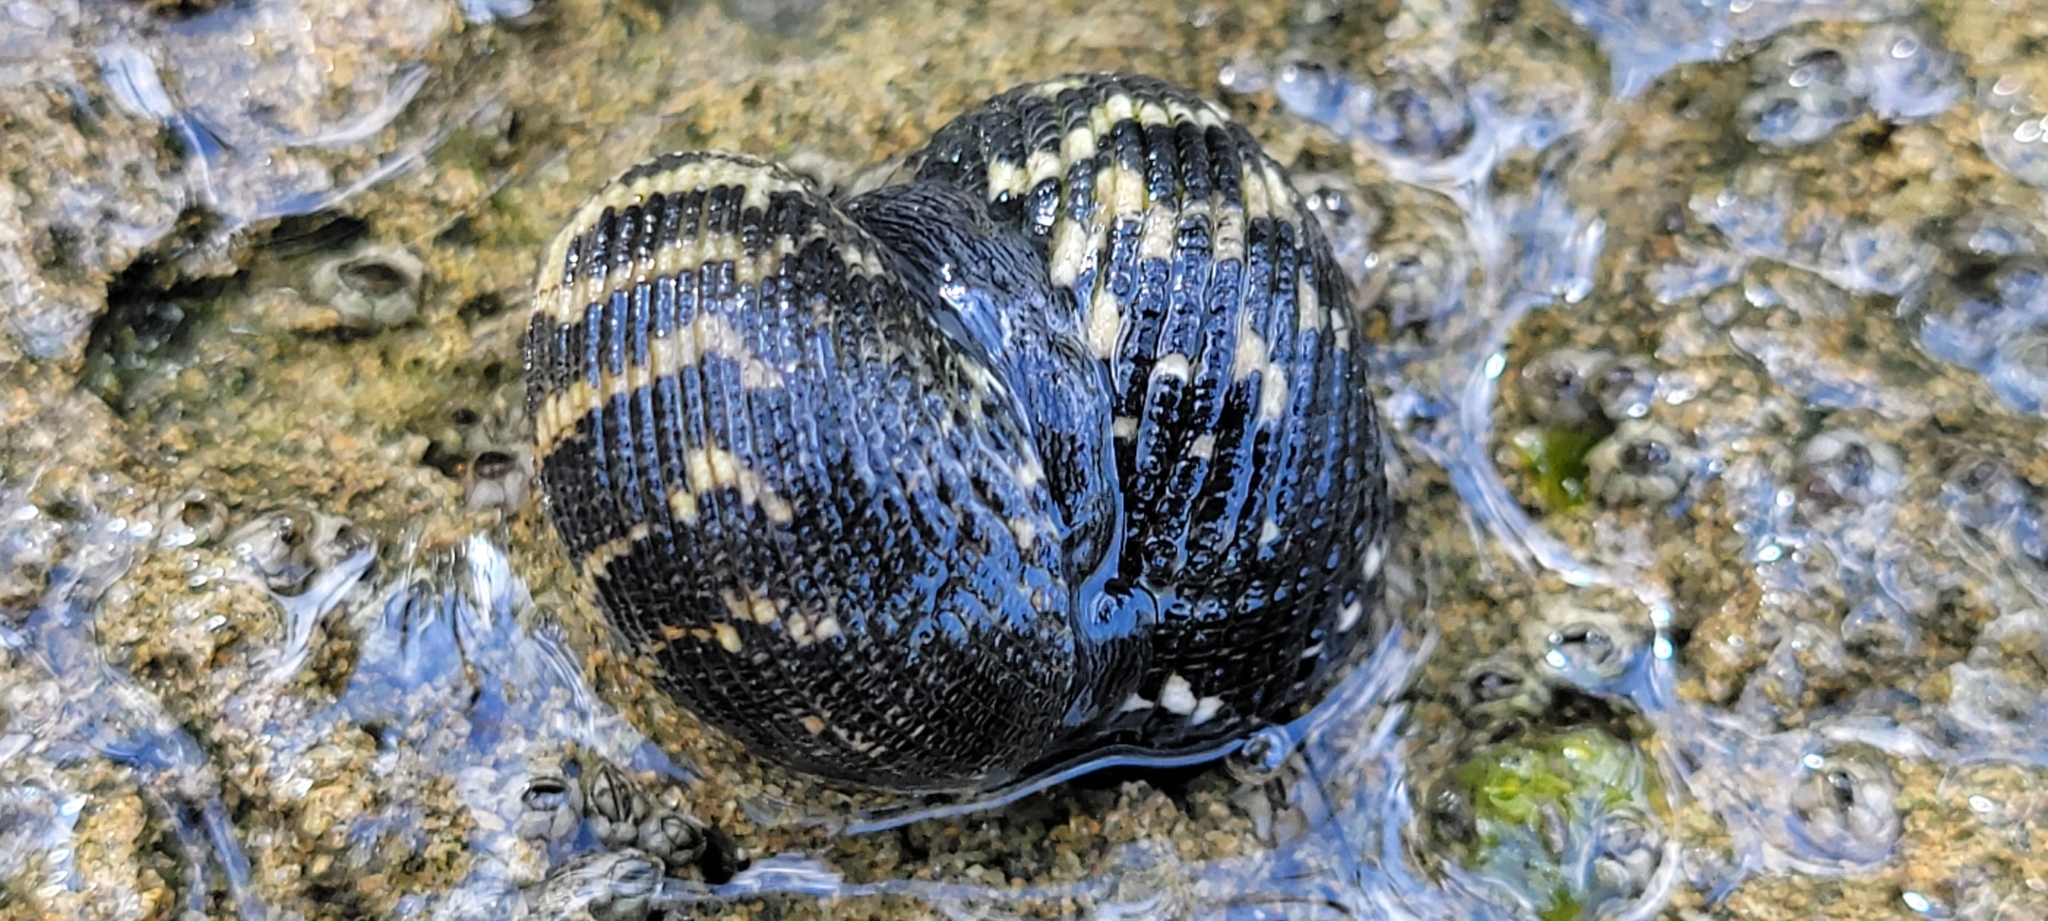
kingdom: Animalia
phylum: Mollusca
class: Gastropoda
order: Cycloneritida
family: Neritidae
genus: Nerita
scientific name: Nerita fulgurans
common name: Antillean nerite
